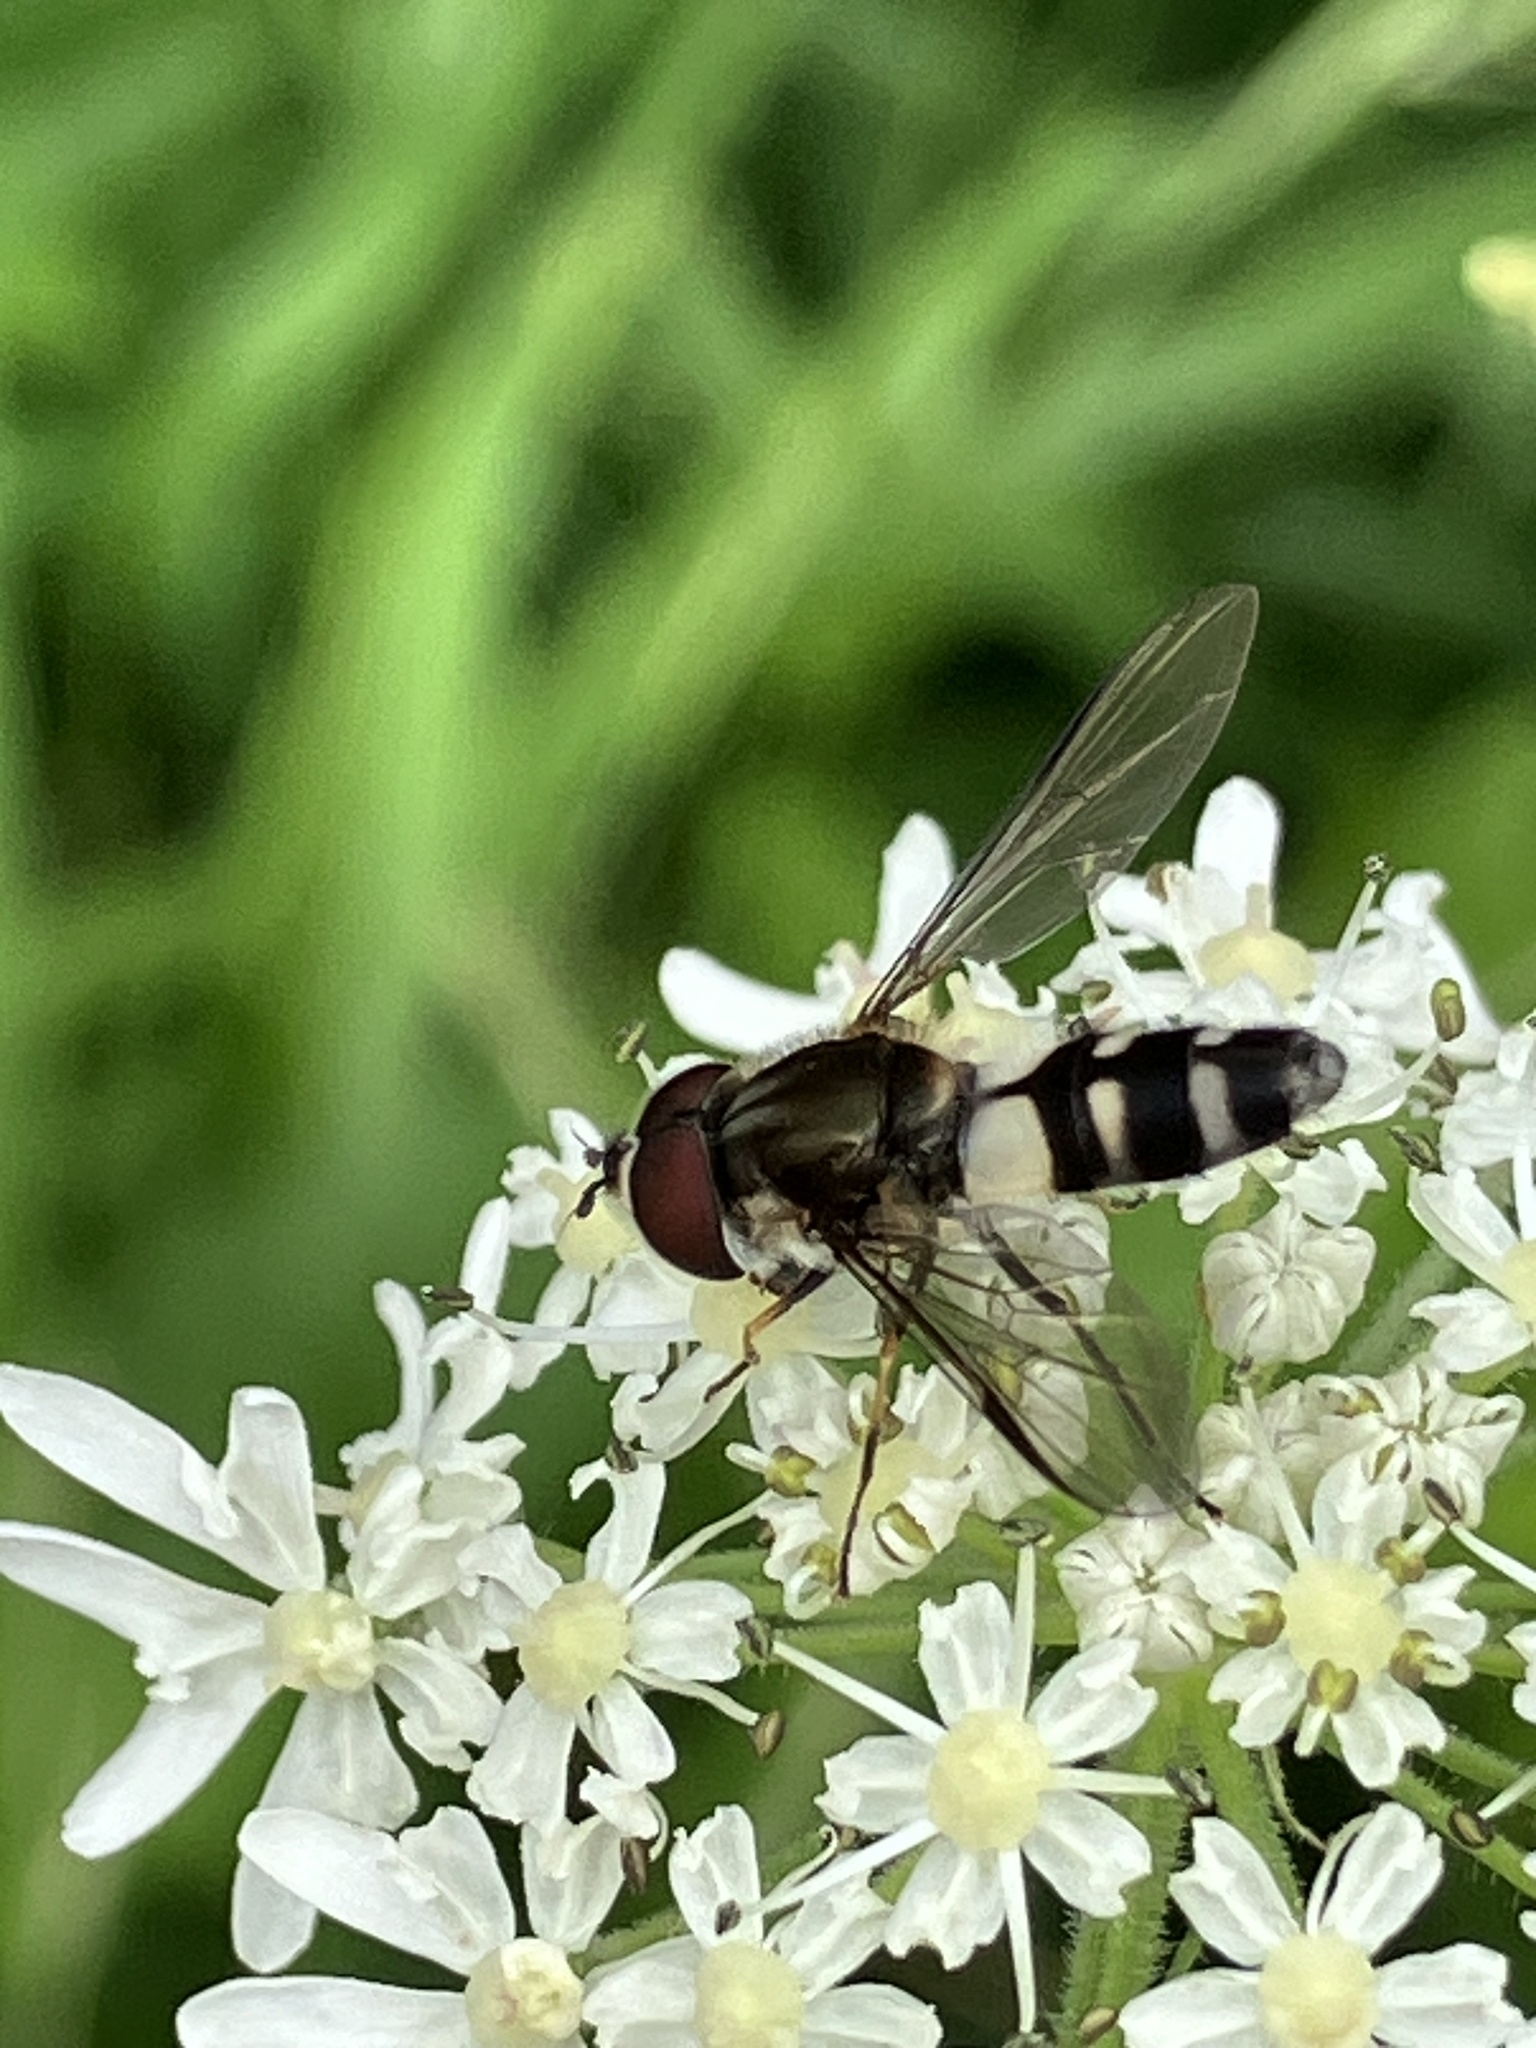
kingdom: Animalia
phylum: Arthropoda
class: Insecta
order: Diptera
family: Syrphidae
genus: Leucozona
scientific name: Leucozona laternaria
